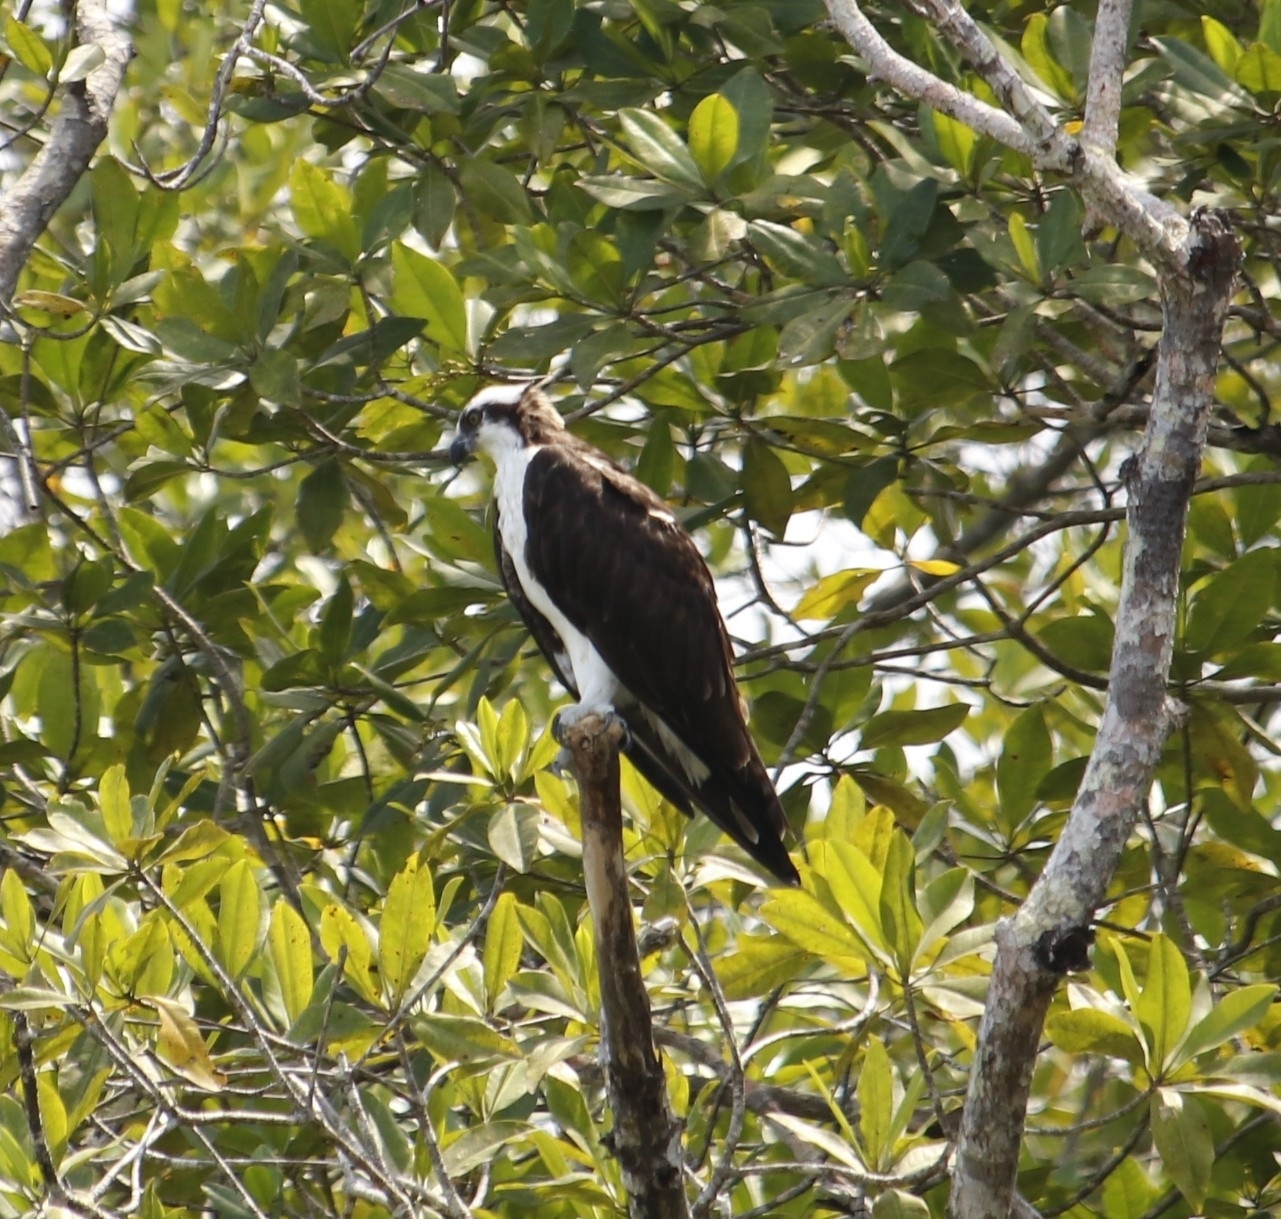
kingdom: Animalia
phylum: Chordata
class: Aves
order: Accipitriformes
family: Pandionidae
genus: Pandion
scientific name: Pandion haliaetus
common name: Osprey
